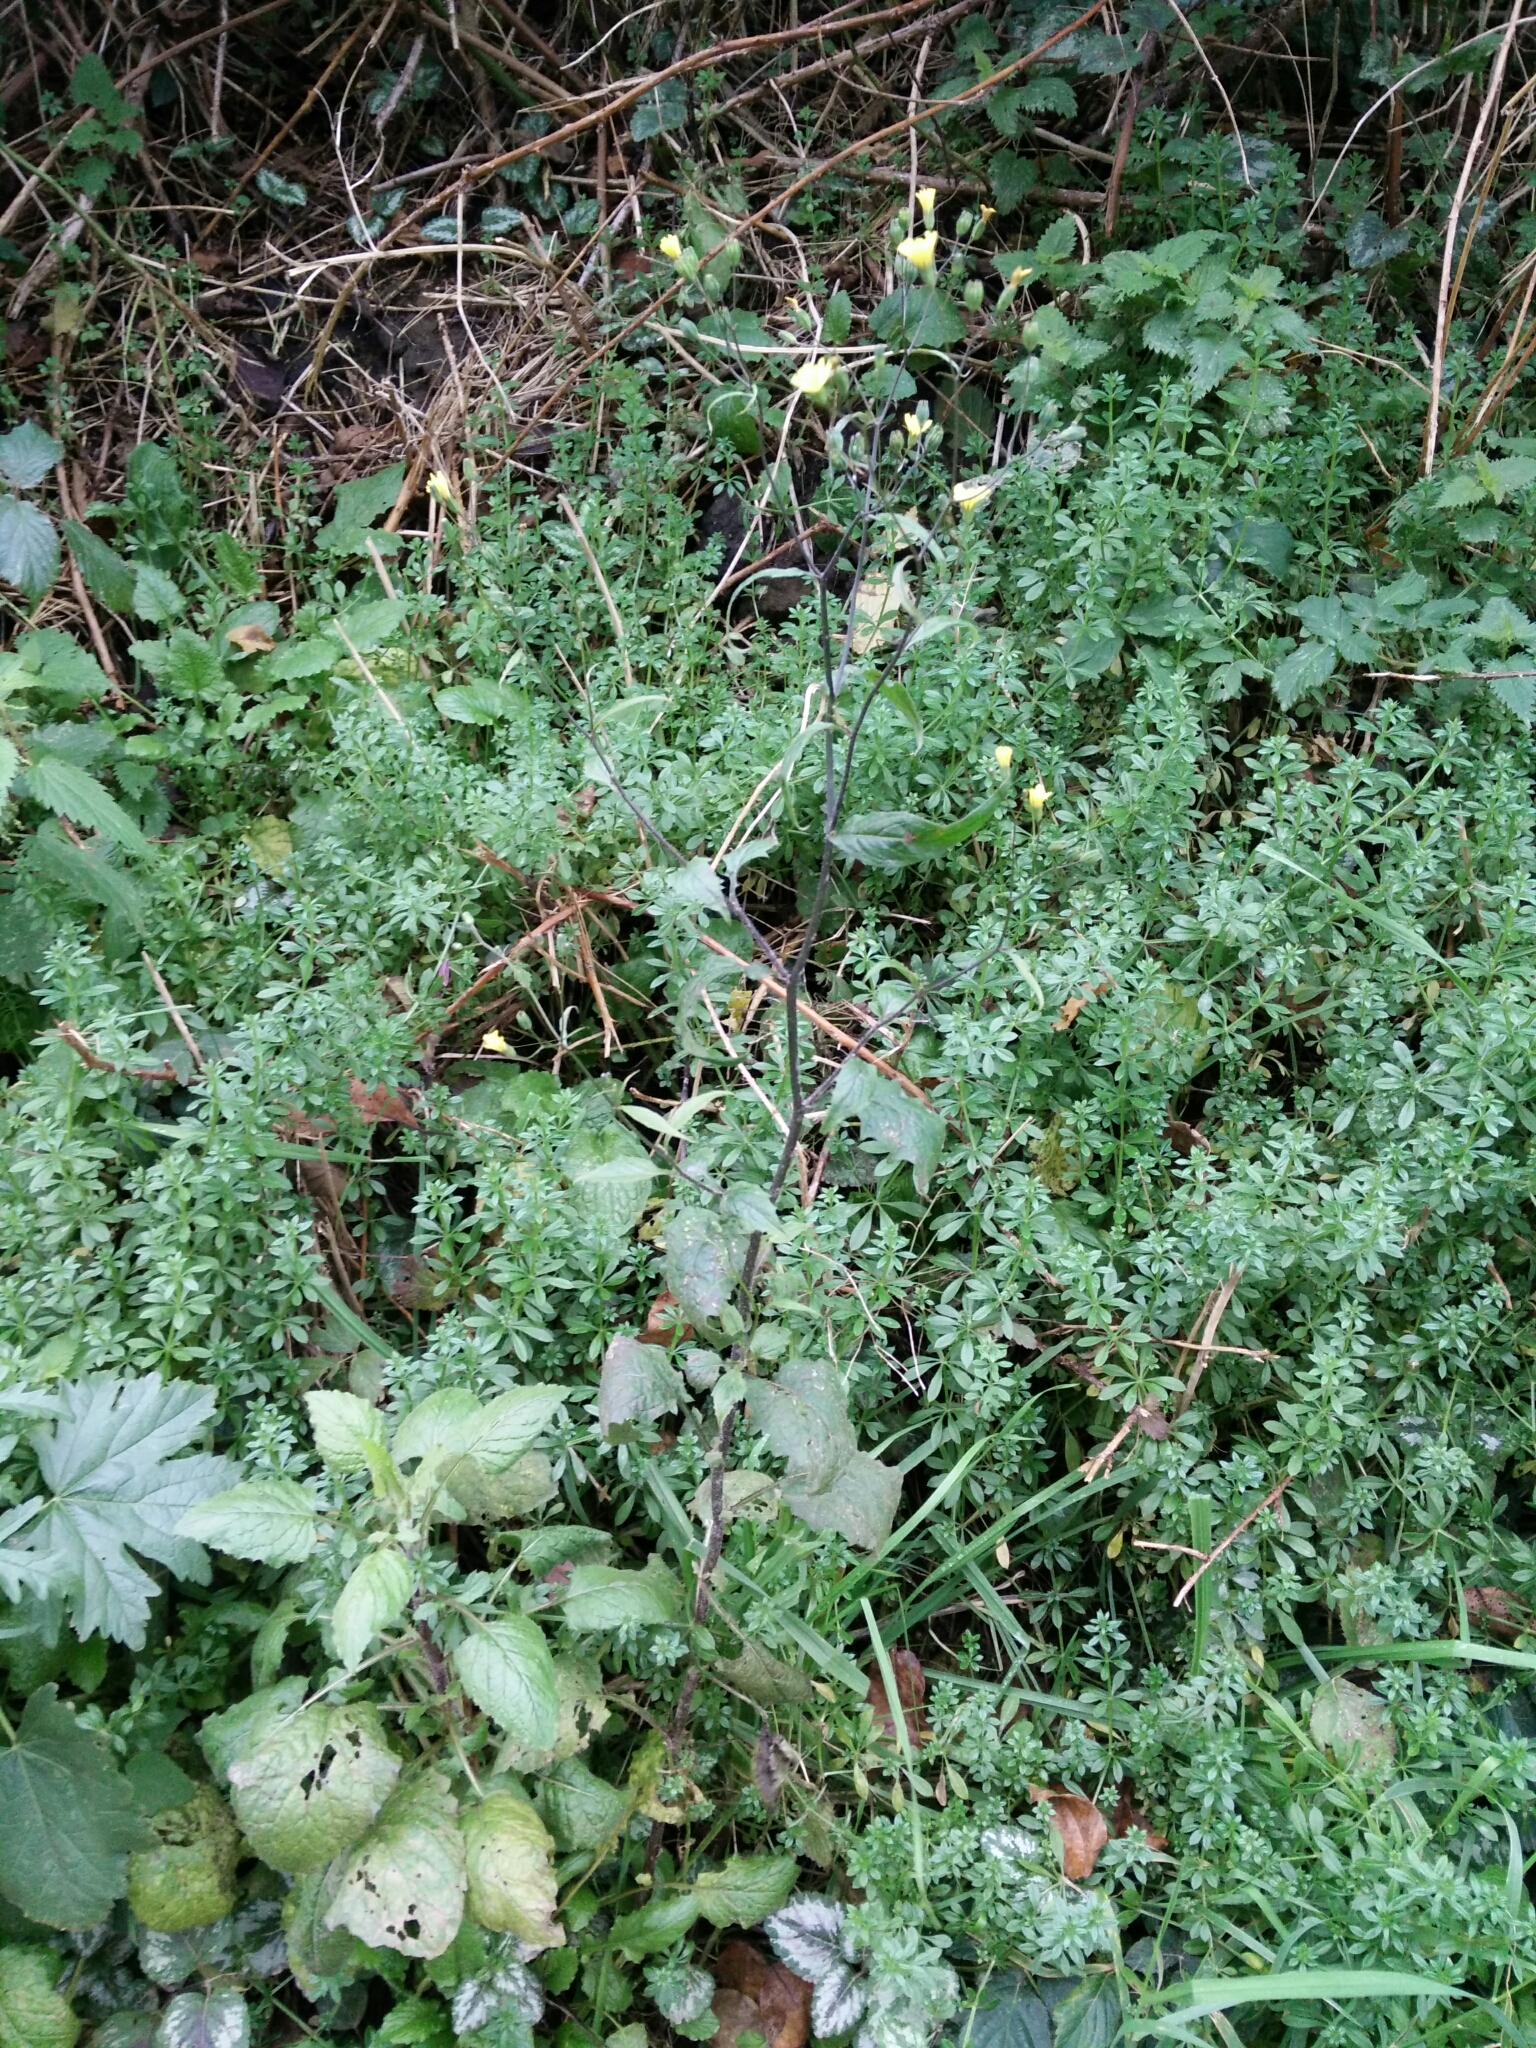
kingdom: Plantae
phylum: Tracheophyta
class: Magnoliopsida
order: Asterales
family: Asteraceae
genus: Lapsana
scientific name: Lapsana communis
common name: Nipplewort
